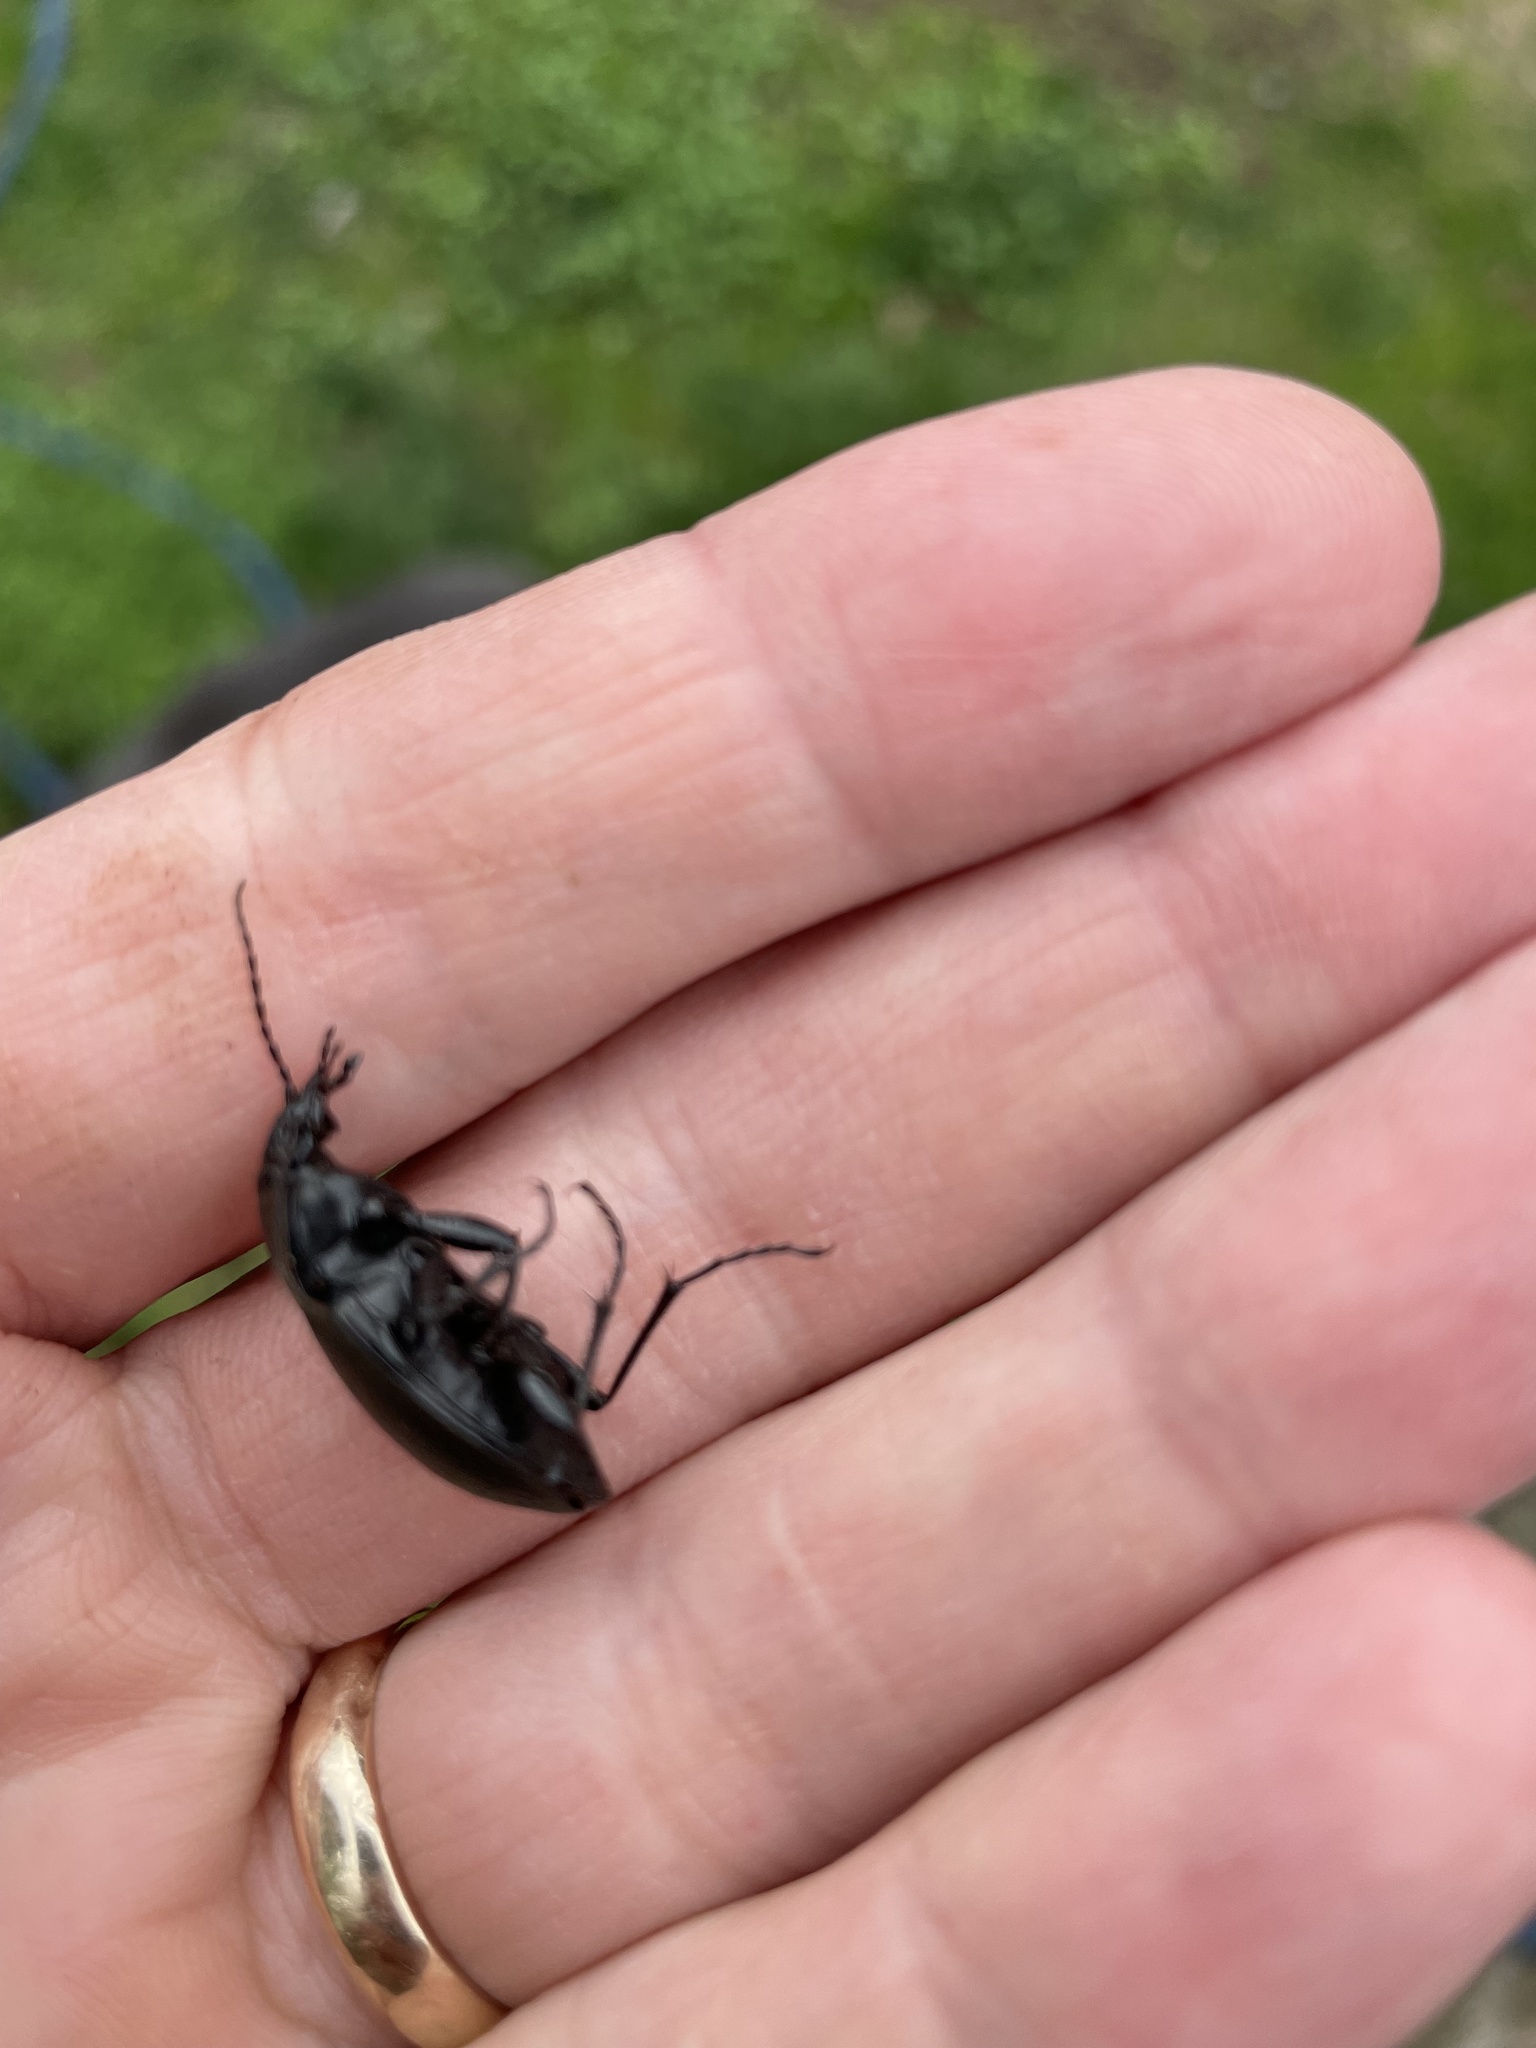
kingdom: Animalia
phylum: Arthropoda
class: Insecta
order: Coleoptera
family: Carabidae
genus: Carabus
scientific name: Carabus nemoralis
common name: European ground beetle
